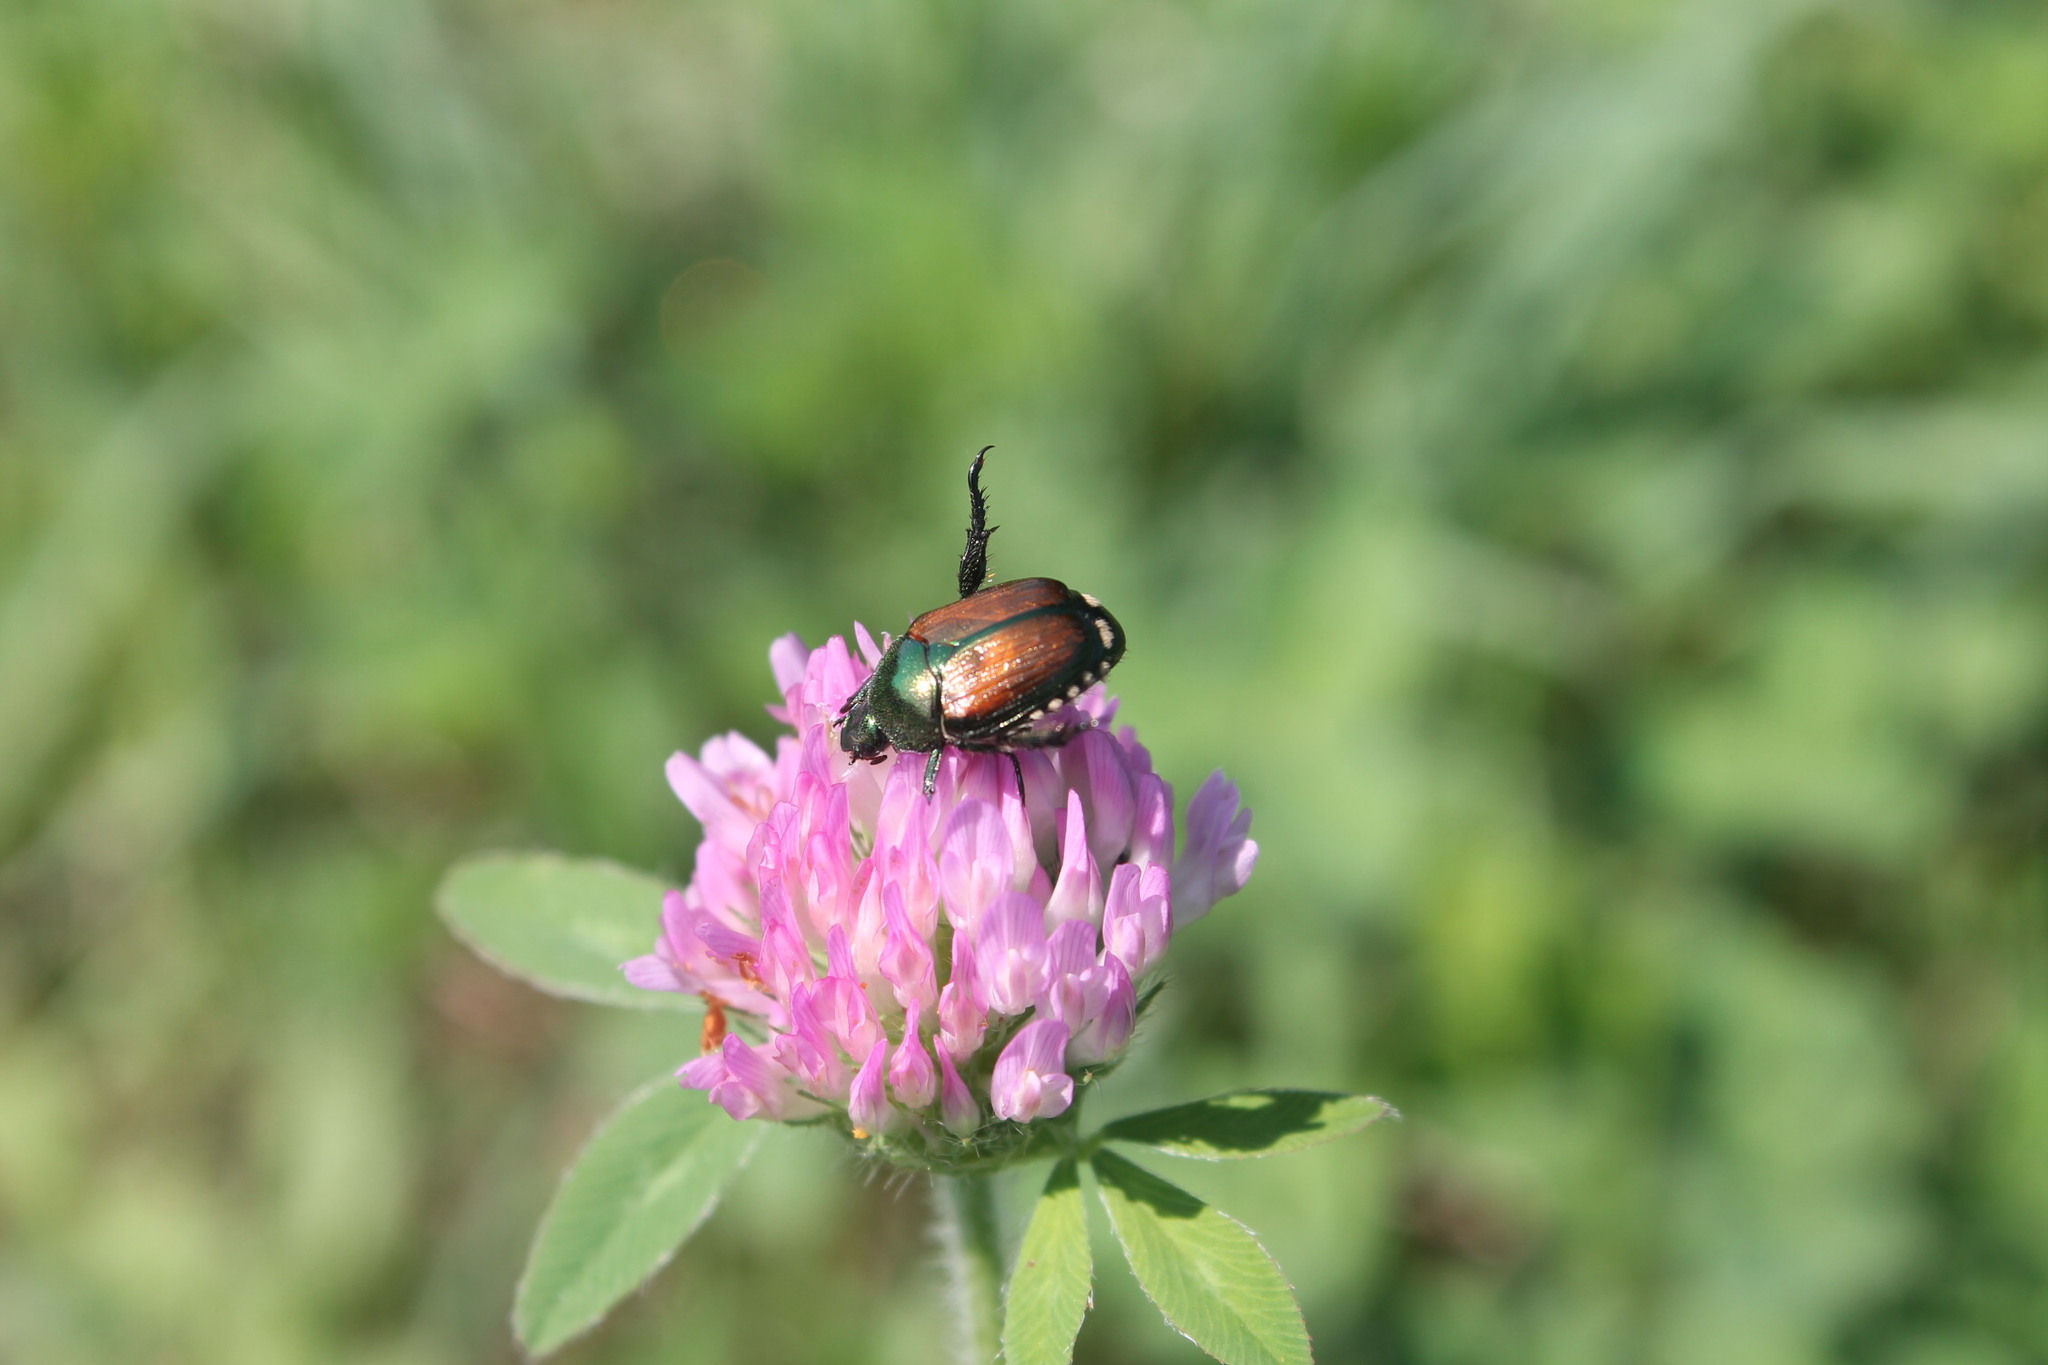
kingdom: Animalia
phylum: Arthropoda
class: Insecta
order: Coleoptera
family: Scarabaeidae
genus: Popillia
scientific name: Popillia japonica
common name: Japanese beetle
